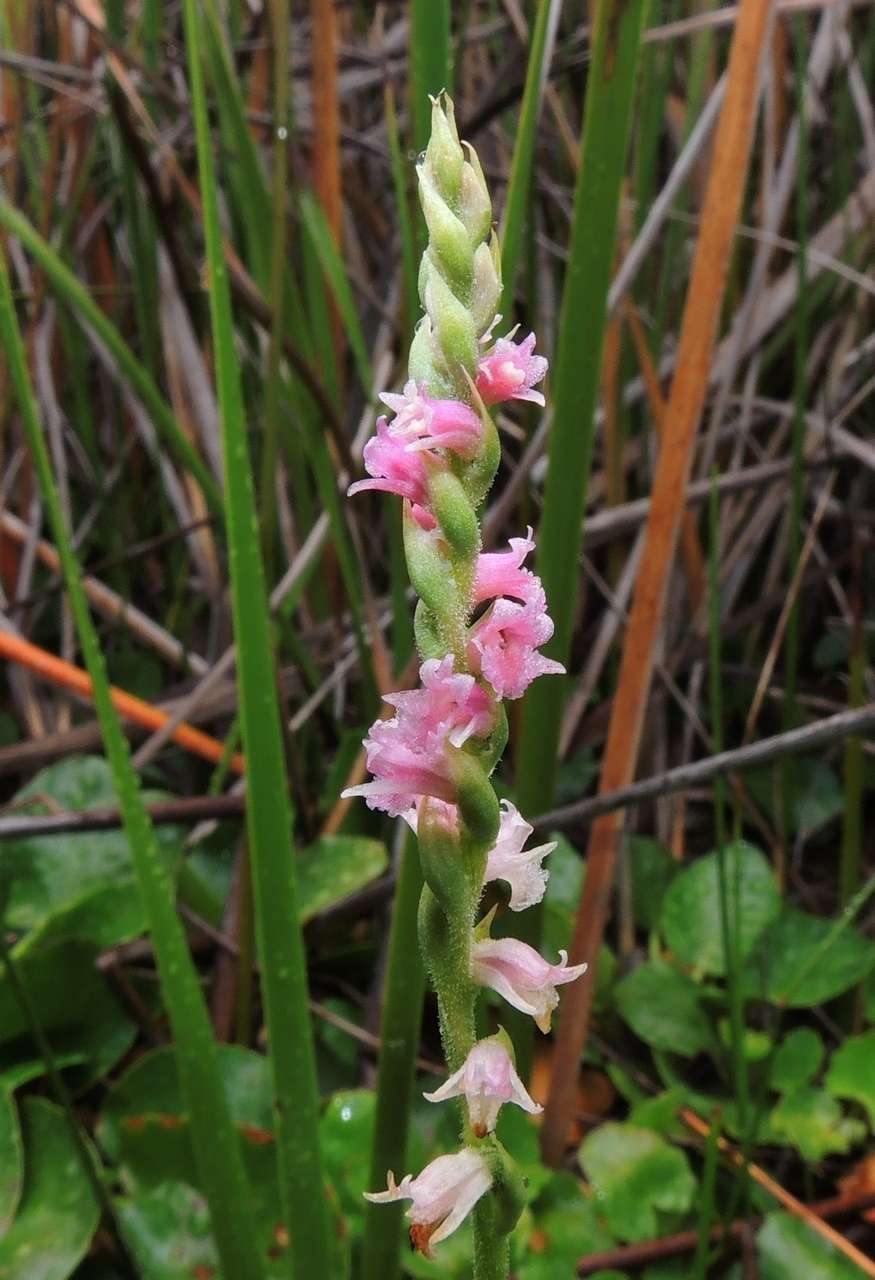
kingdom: Plantae
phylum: Tracheophyta
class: Liliopsida
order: Asparagales
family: Orchidaceae
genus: Spiranthes
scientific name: Spiranthes australis
